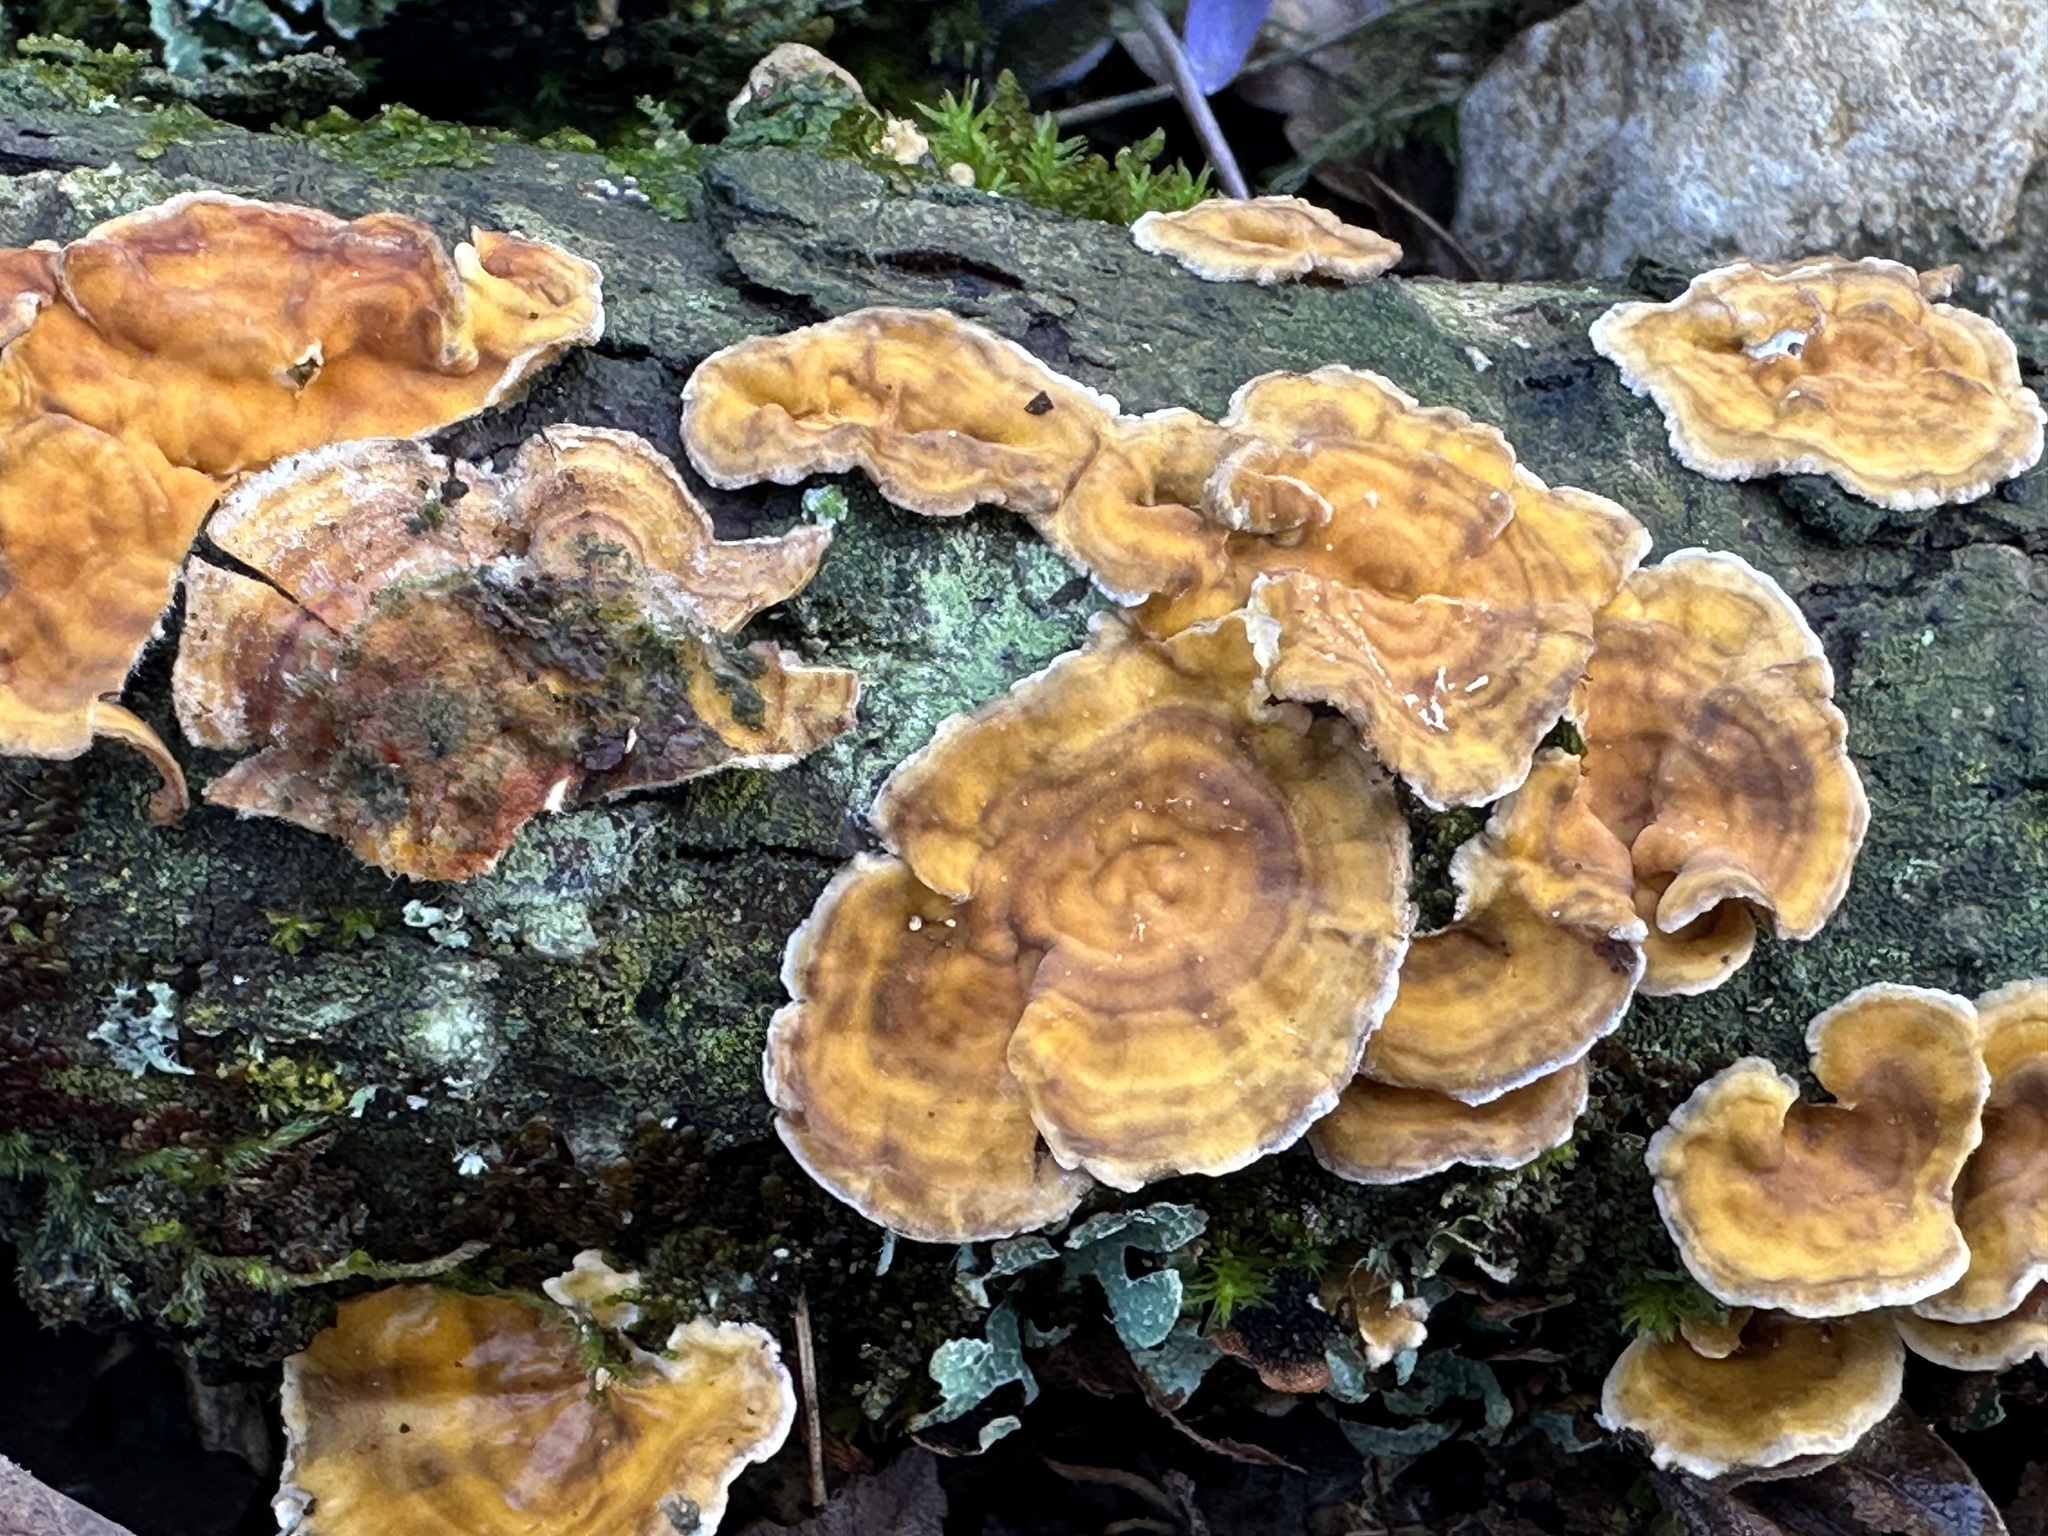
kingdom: Fungi
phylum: Basidiomycota
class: Agaricomycetes
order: Russulales
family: Stereaceae
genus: Stereum
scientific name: Stereum hirsutum
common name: Hairy curtain crust
